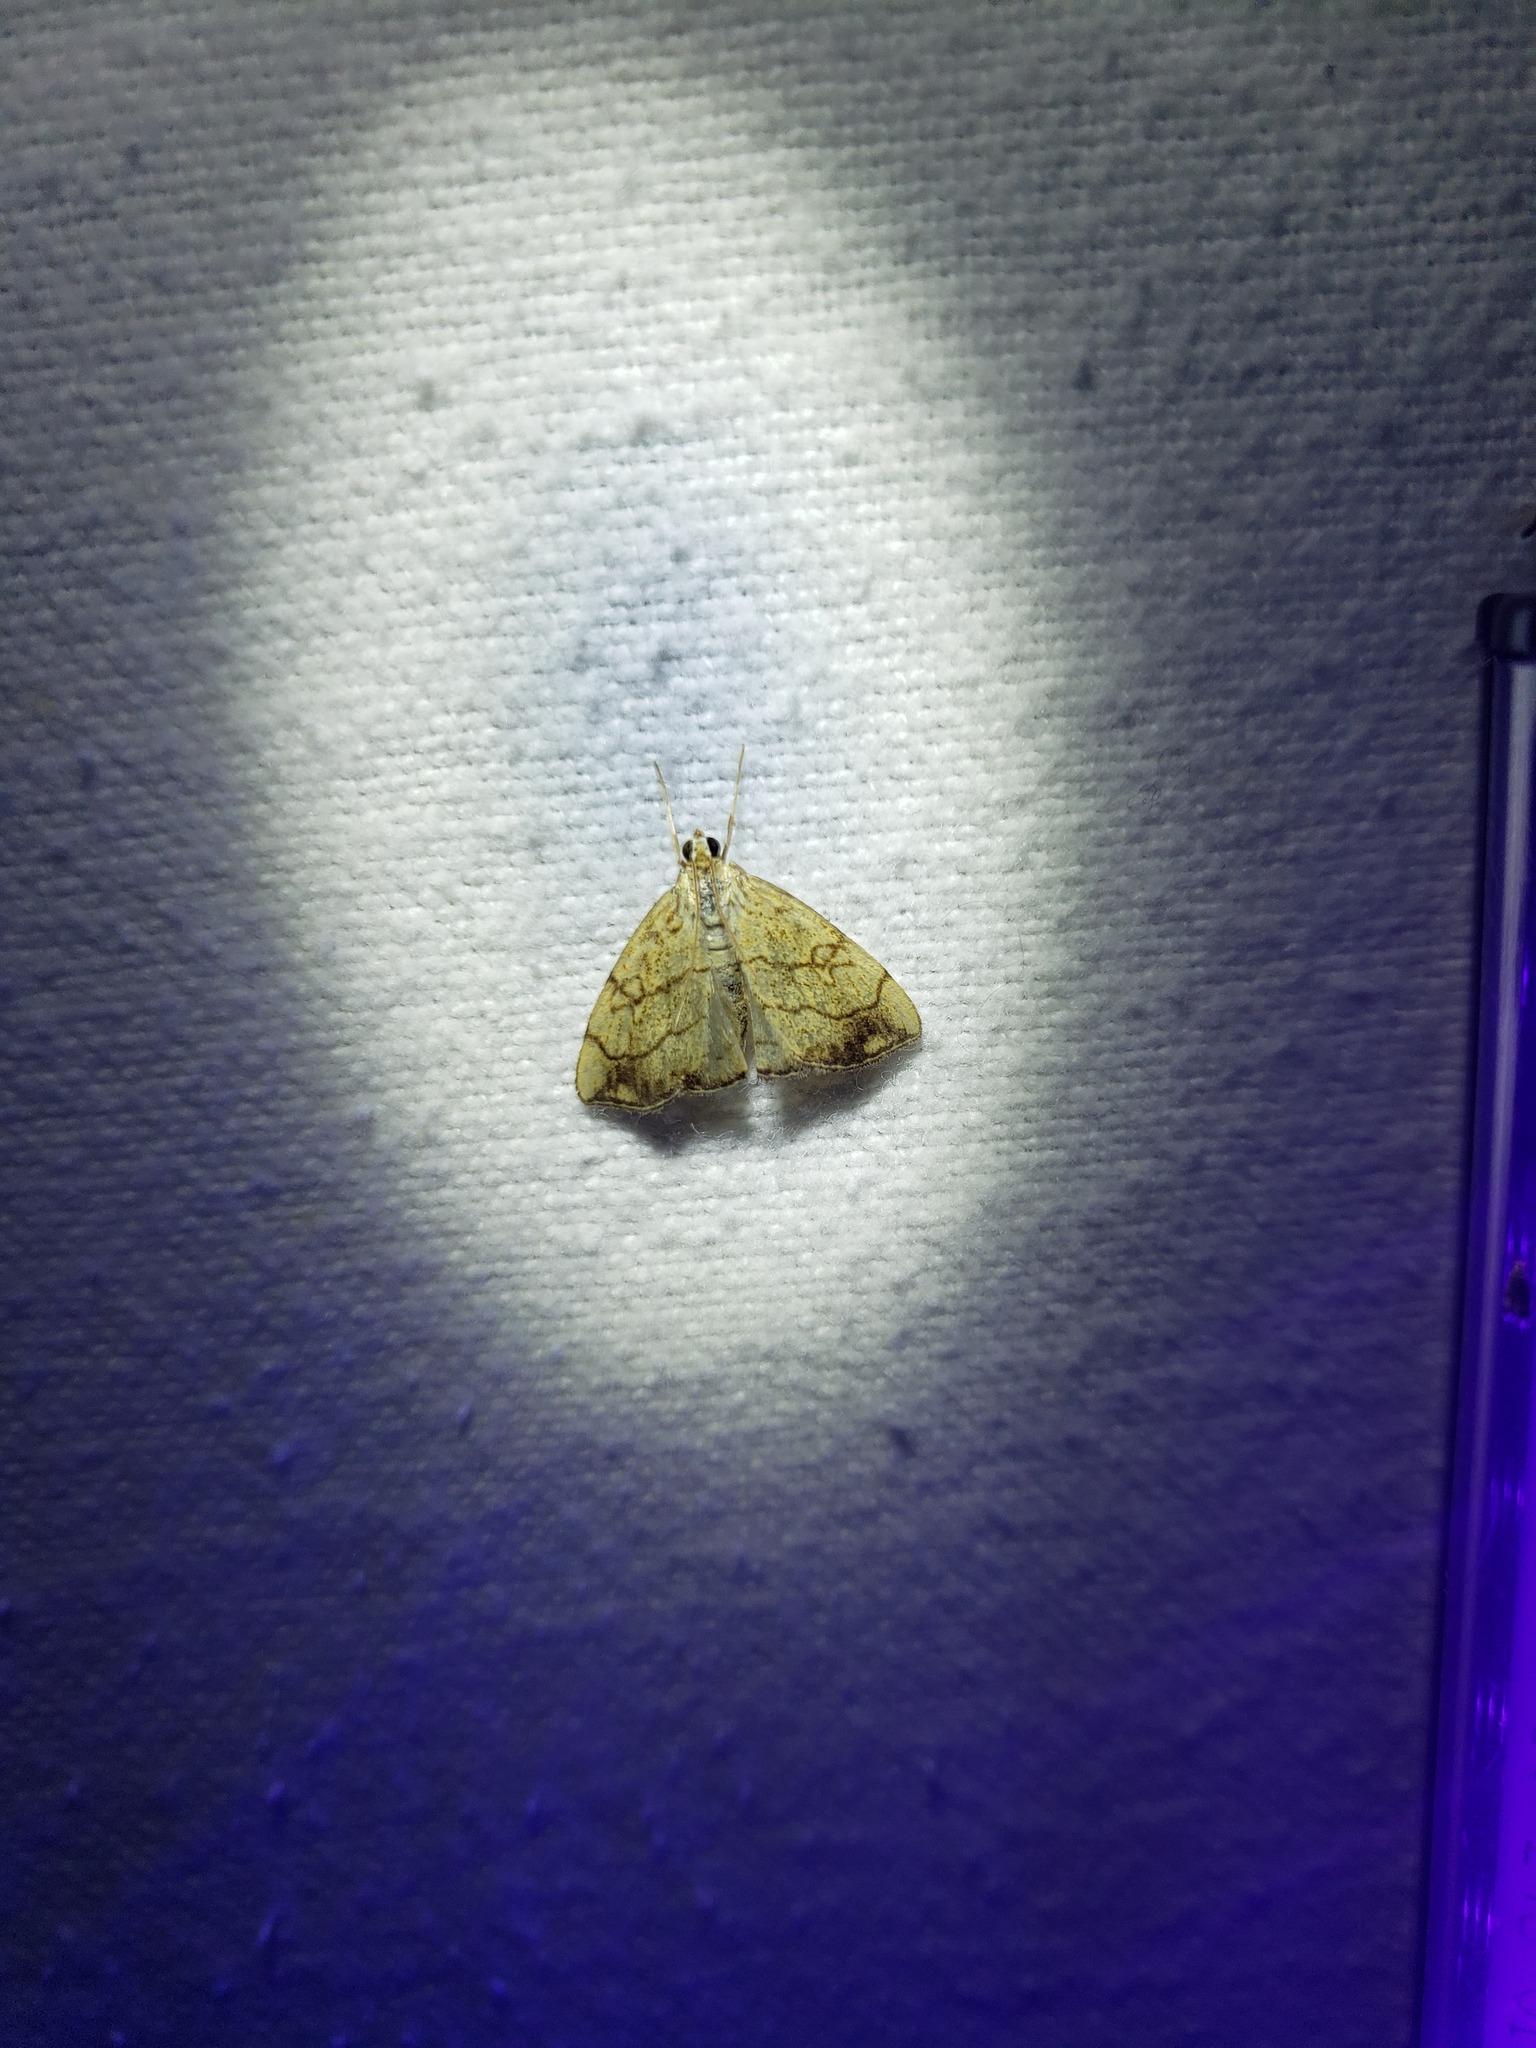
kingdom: Animalia
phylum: Arthropoda
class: Insecta
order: Lepidoptera
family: Crambidae
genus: Evergestis
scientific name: Evergestis pallidata
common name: Chequered pearl
